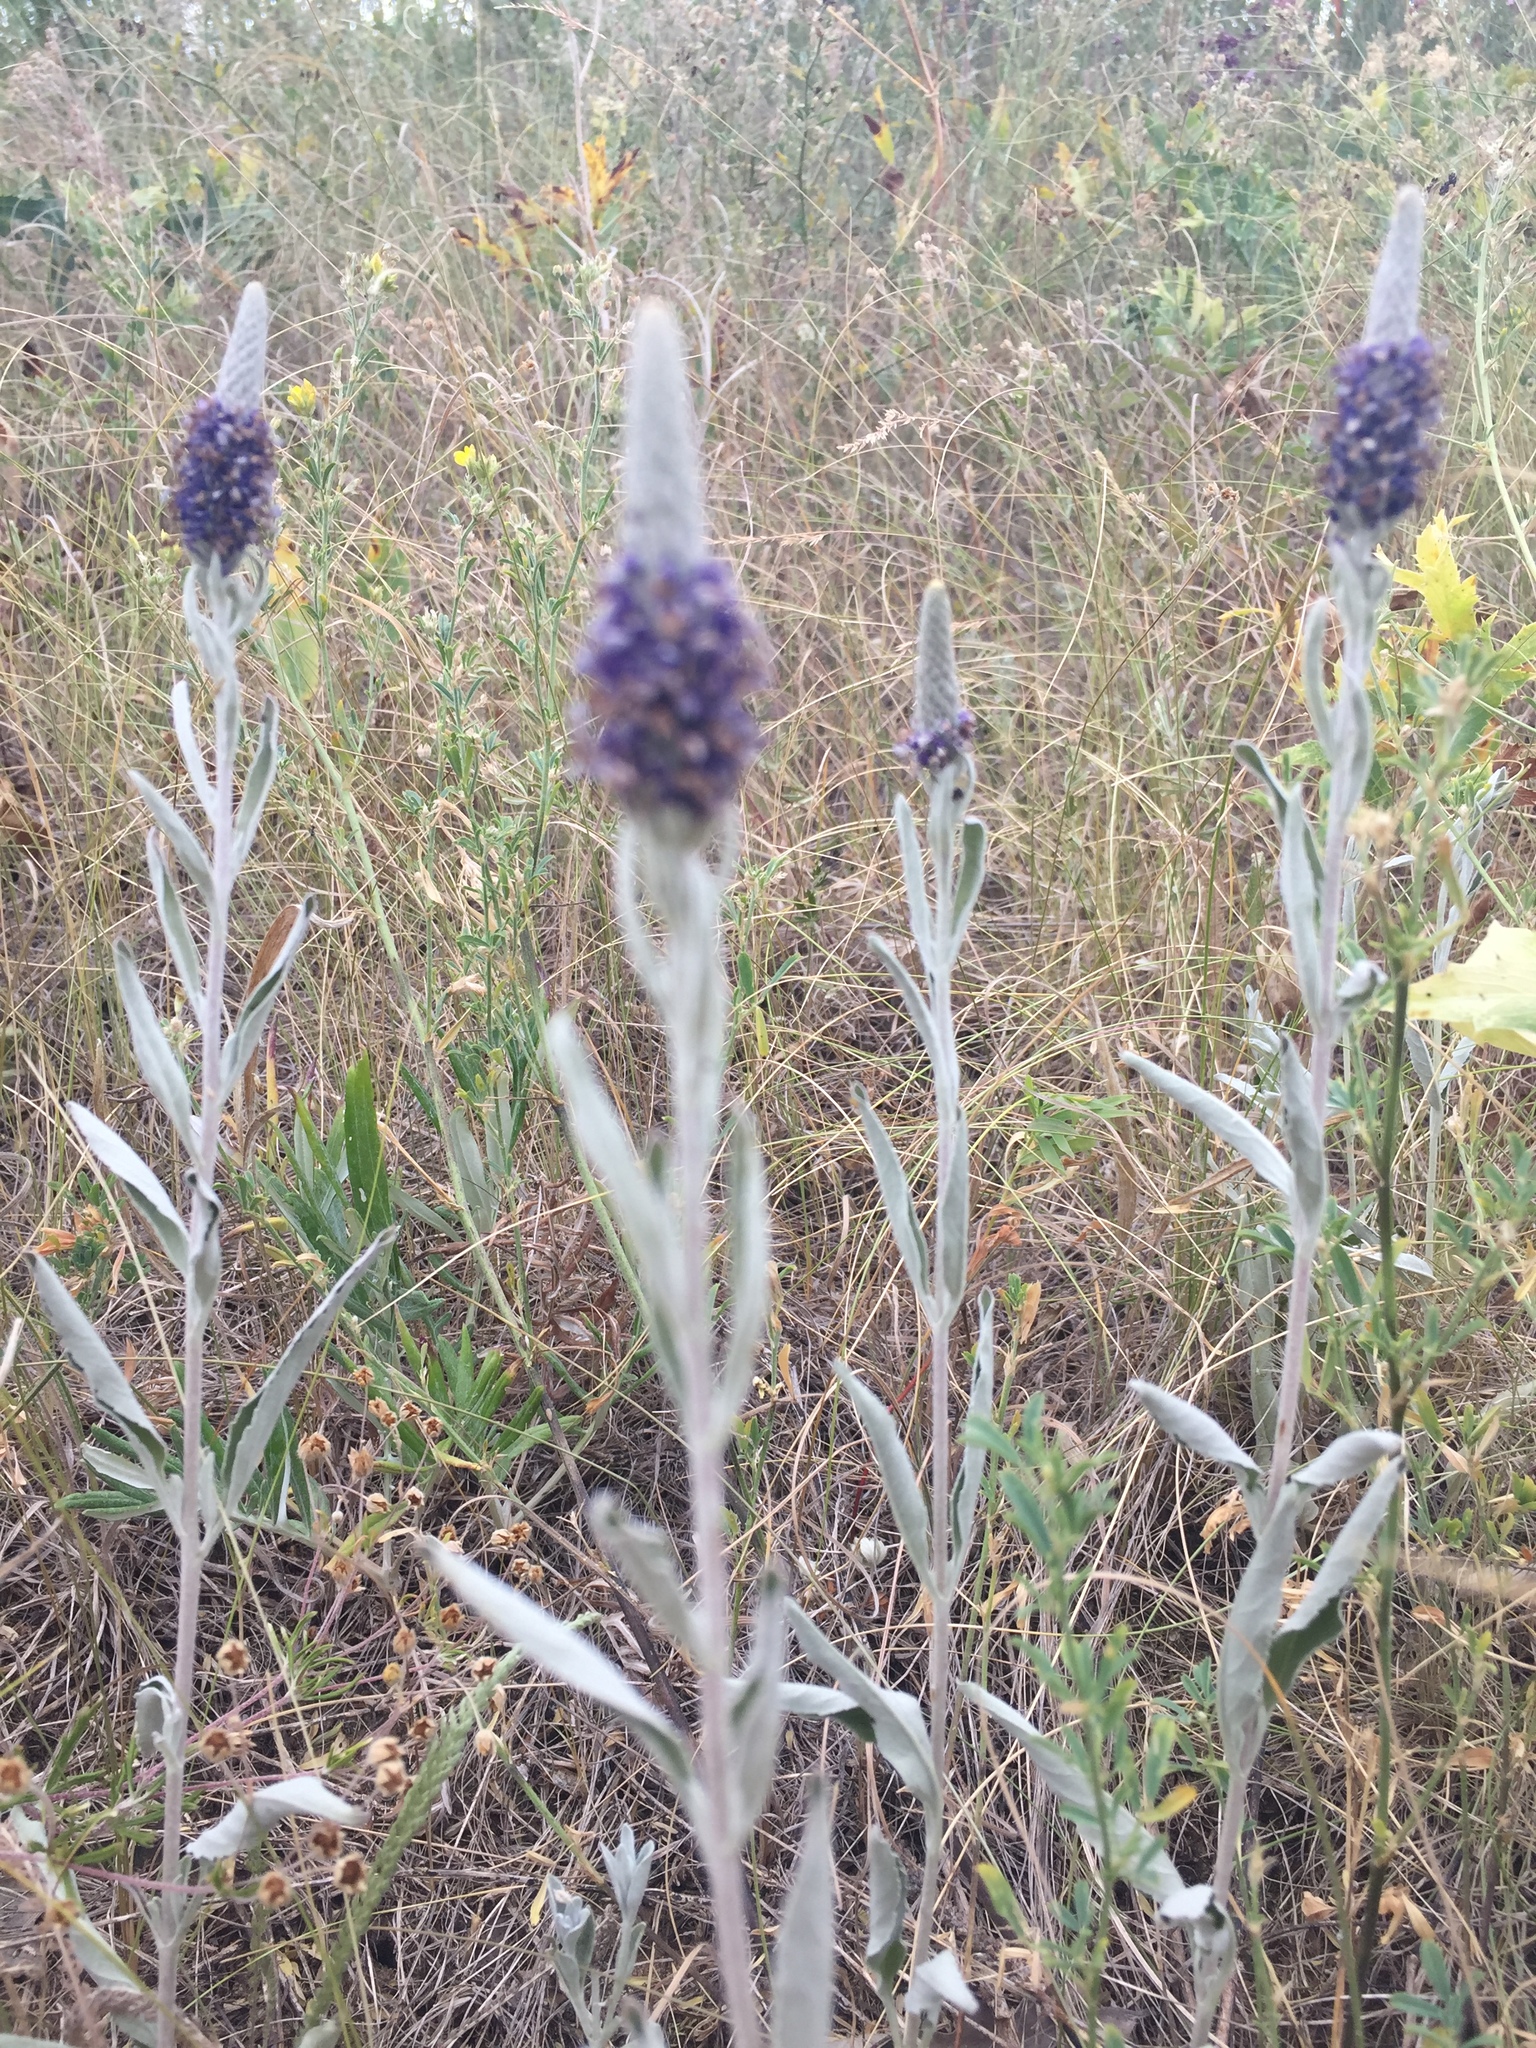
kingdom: Plantae
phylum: Tracheophyta
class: Magnoliopsida
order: Lamiales
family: Plantaginaceae
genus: Veronica
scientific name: Veronica incana
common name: Silver speedwell
